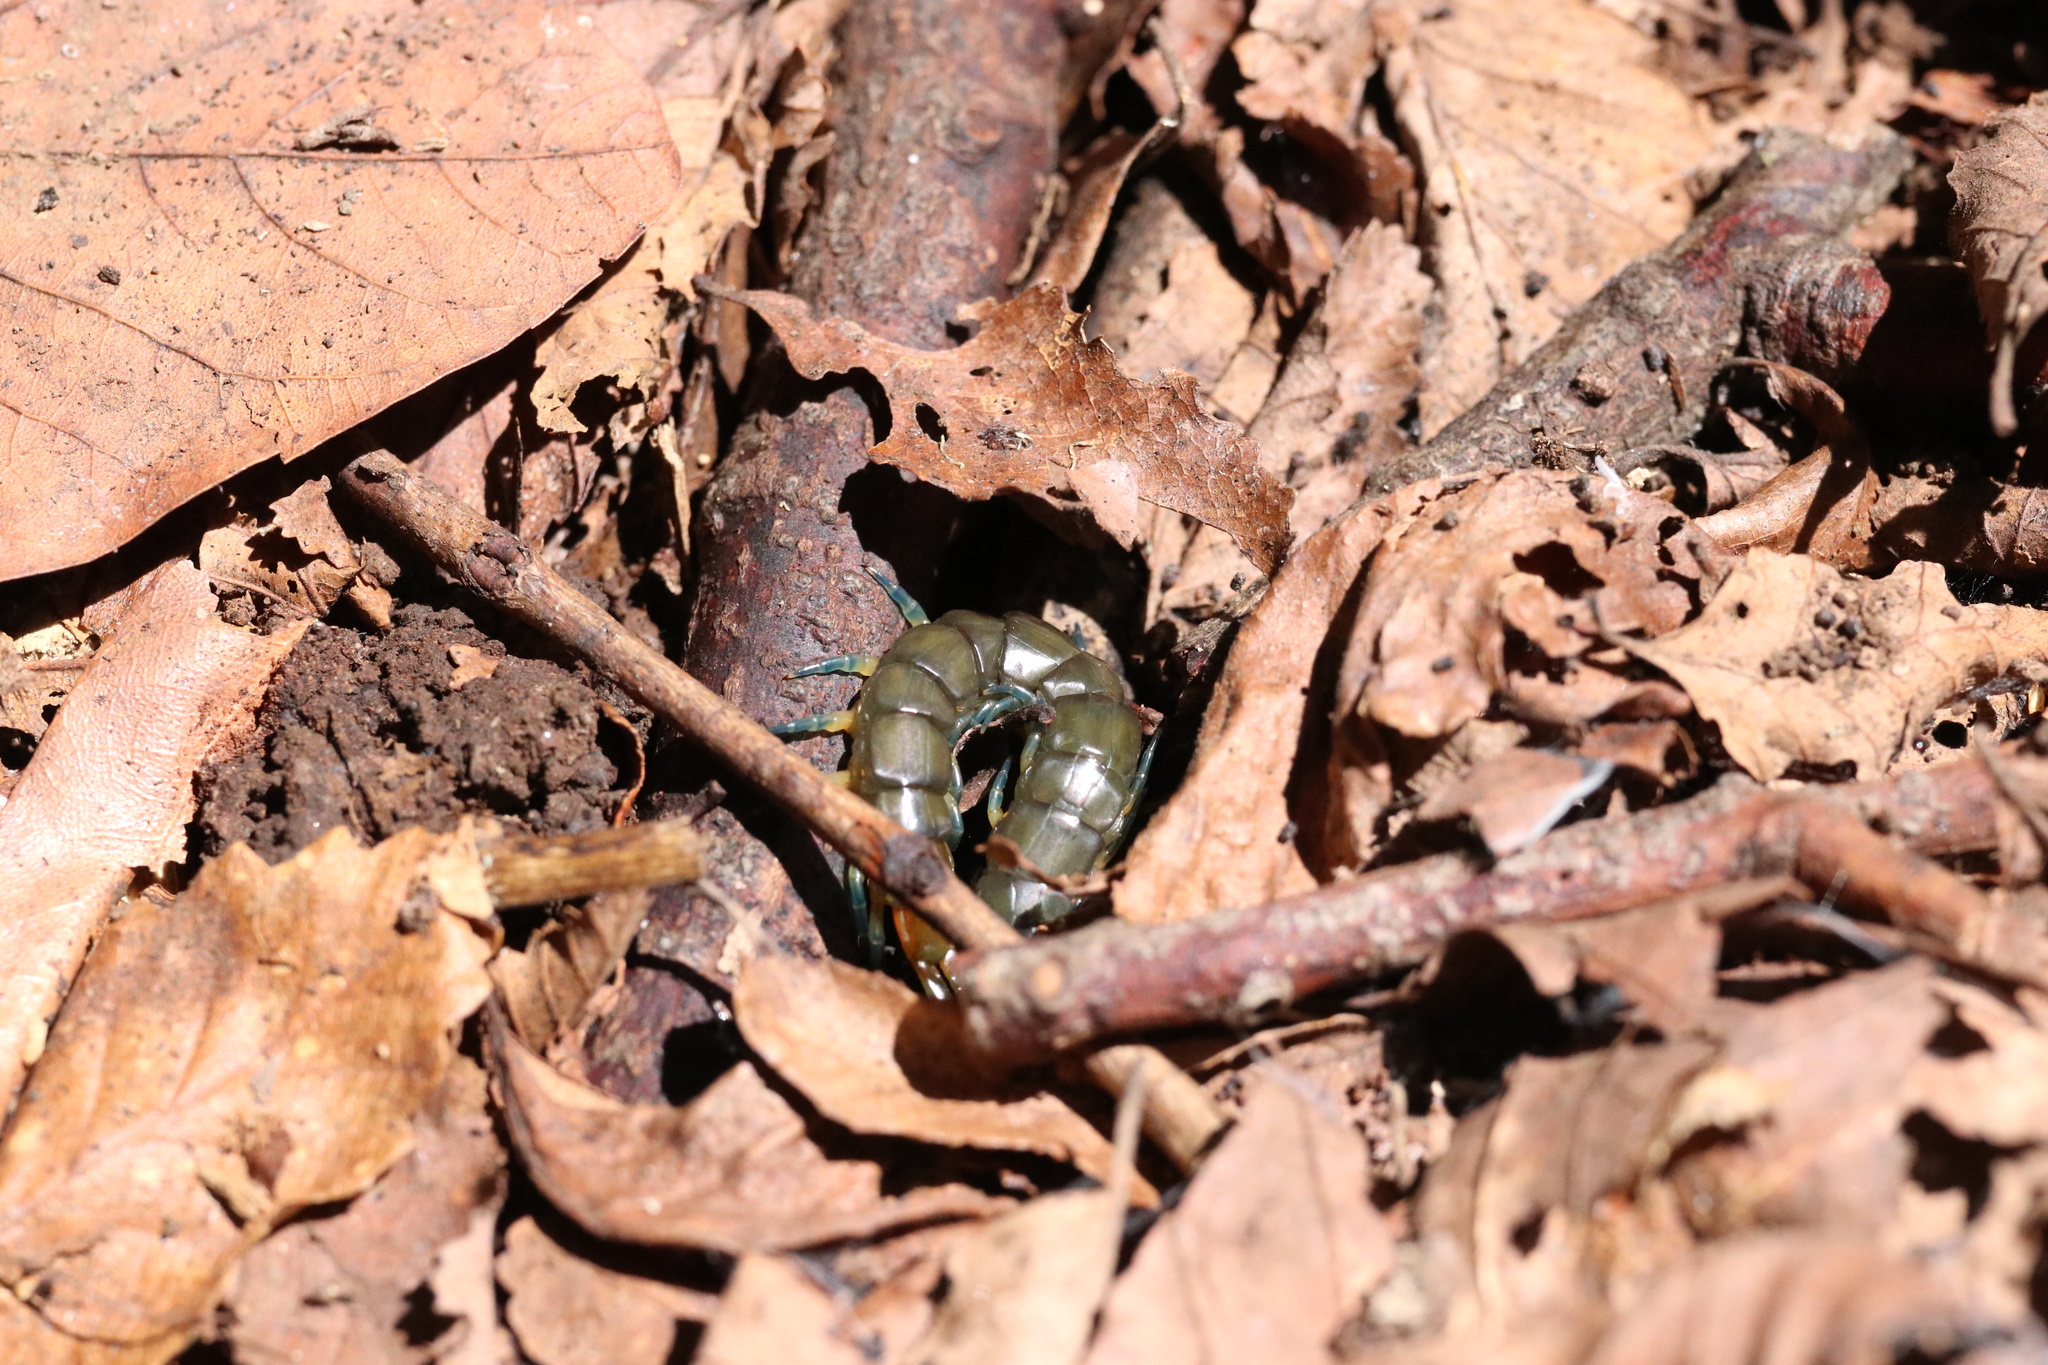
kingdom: Animalia
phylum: Arthropoda
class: Chilopoda
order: Scolopendromorpha
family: Scolopendridae
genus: Hemiscolopendra
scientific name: Hemiscolopendra chilensis
